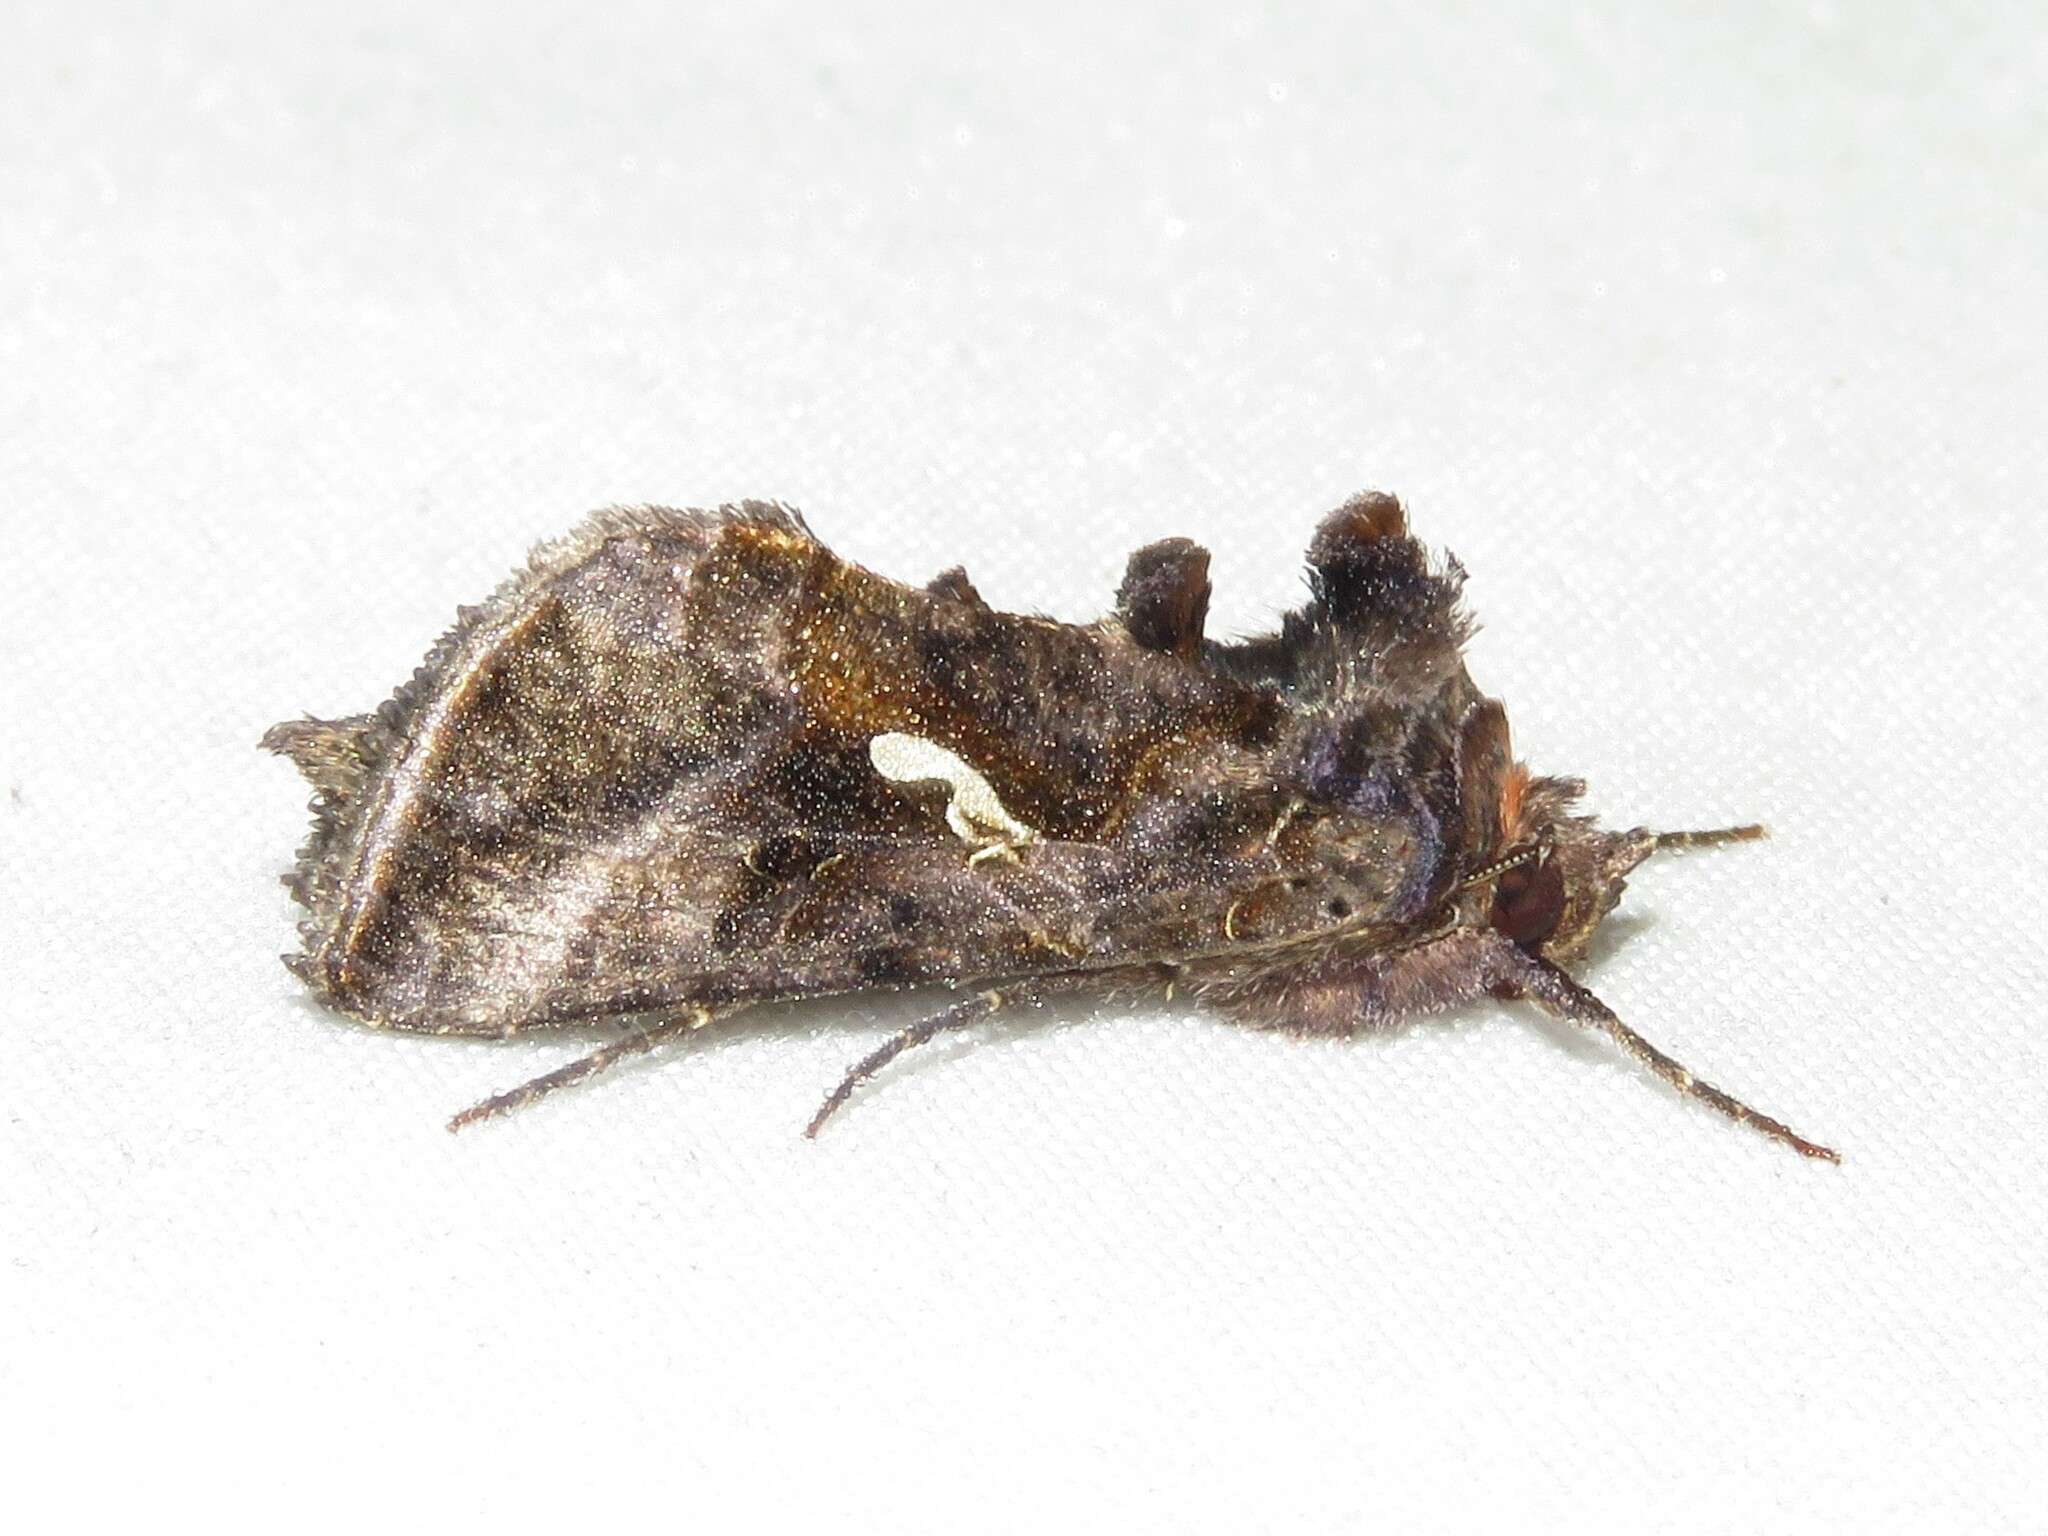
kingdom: Animalia
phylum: Arthropoda
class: Insecta
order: Lepidoptera
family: Noctuidae
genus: Autographa
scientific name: Autographa precationis
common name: Common looper moth
